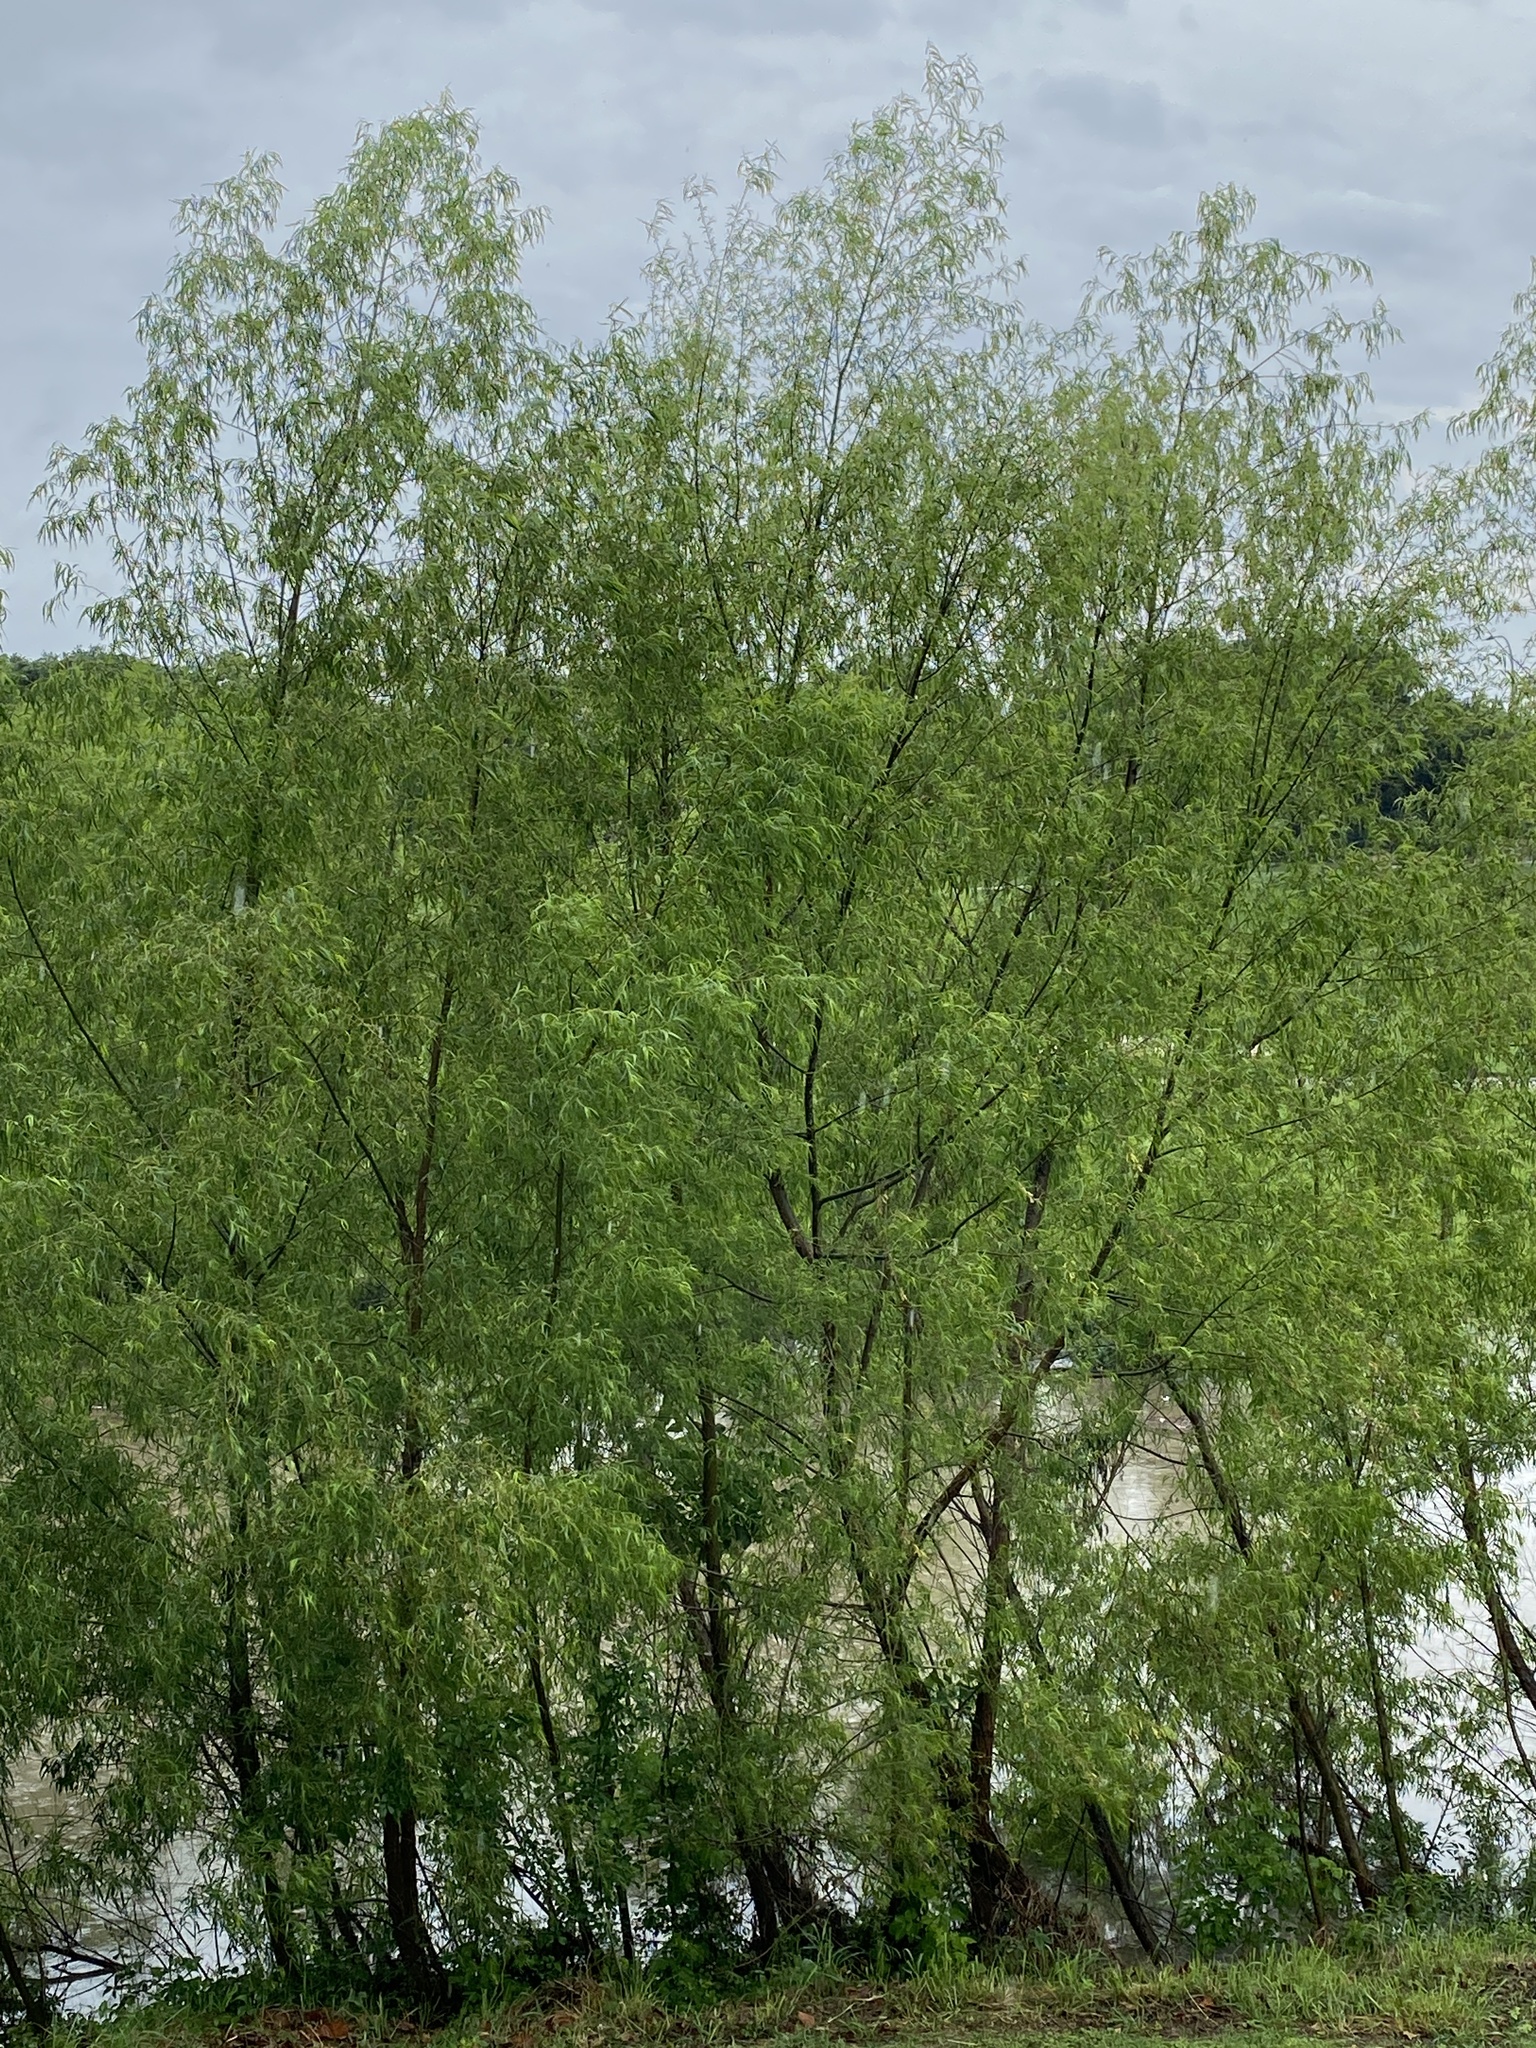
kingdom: Plantae
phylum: Tracheophyta
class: Magnoliopsida
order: Malpighiales
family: Salicaceae
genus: Salix
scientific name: Salix nigra
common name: Black willow
